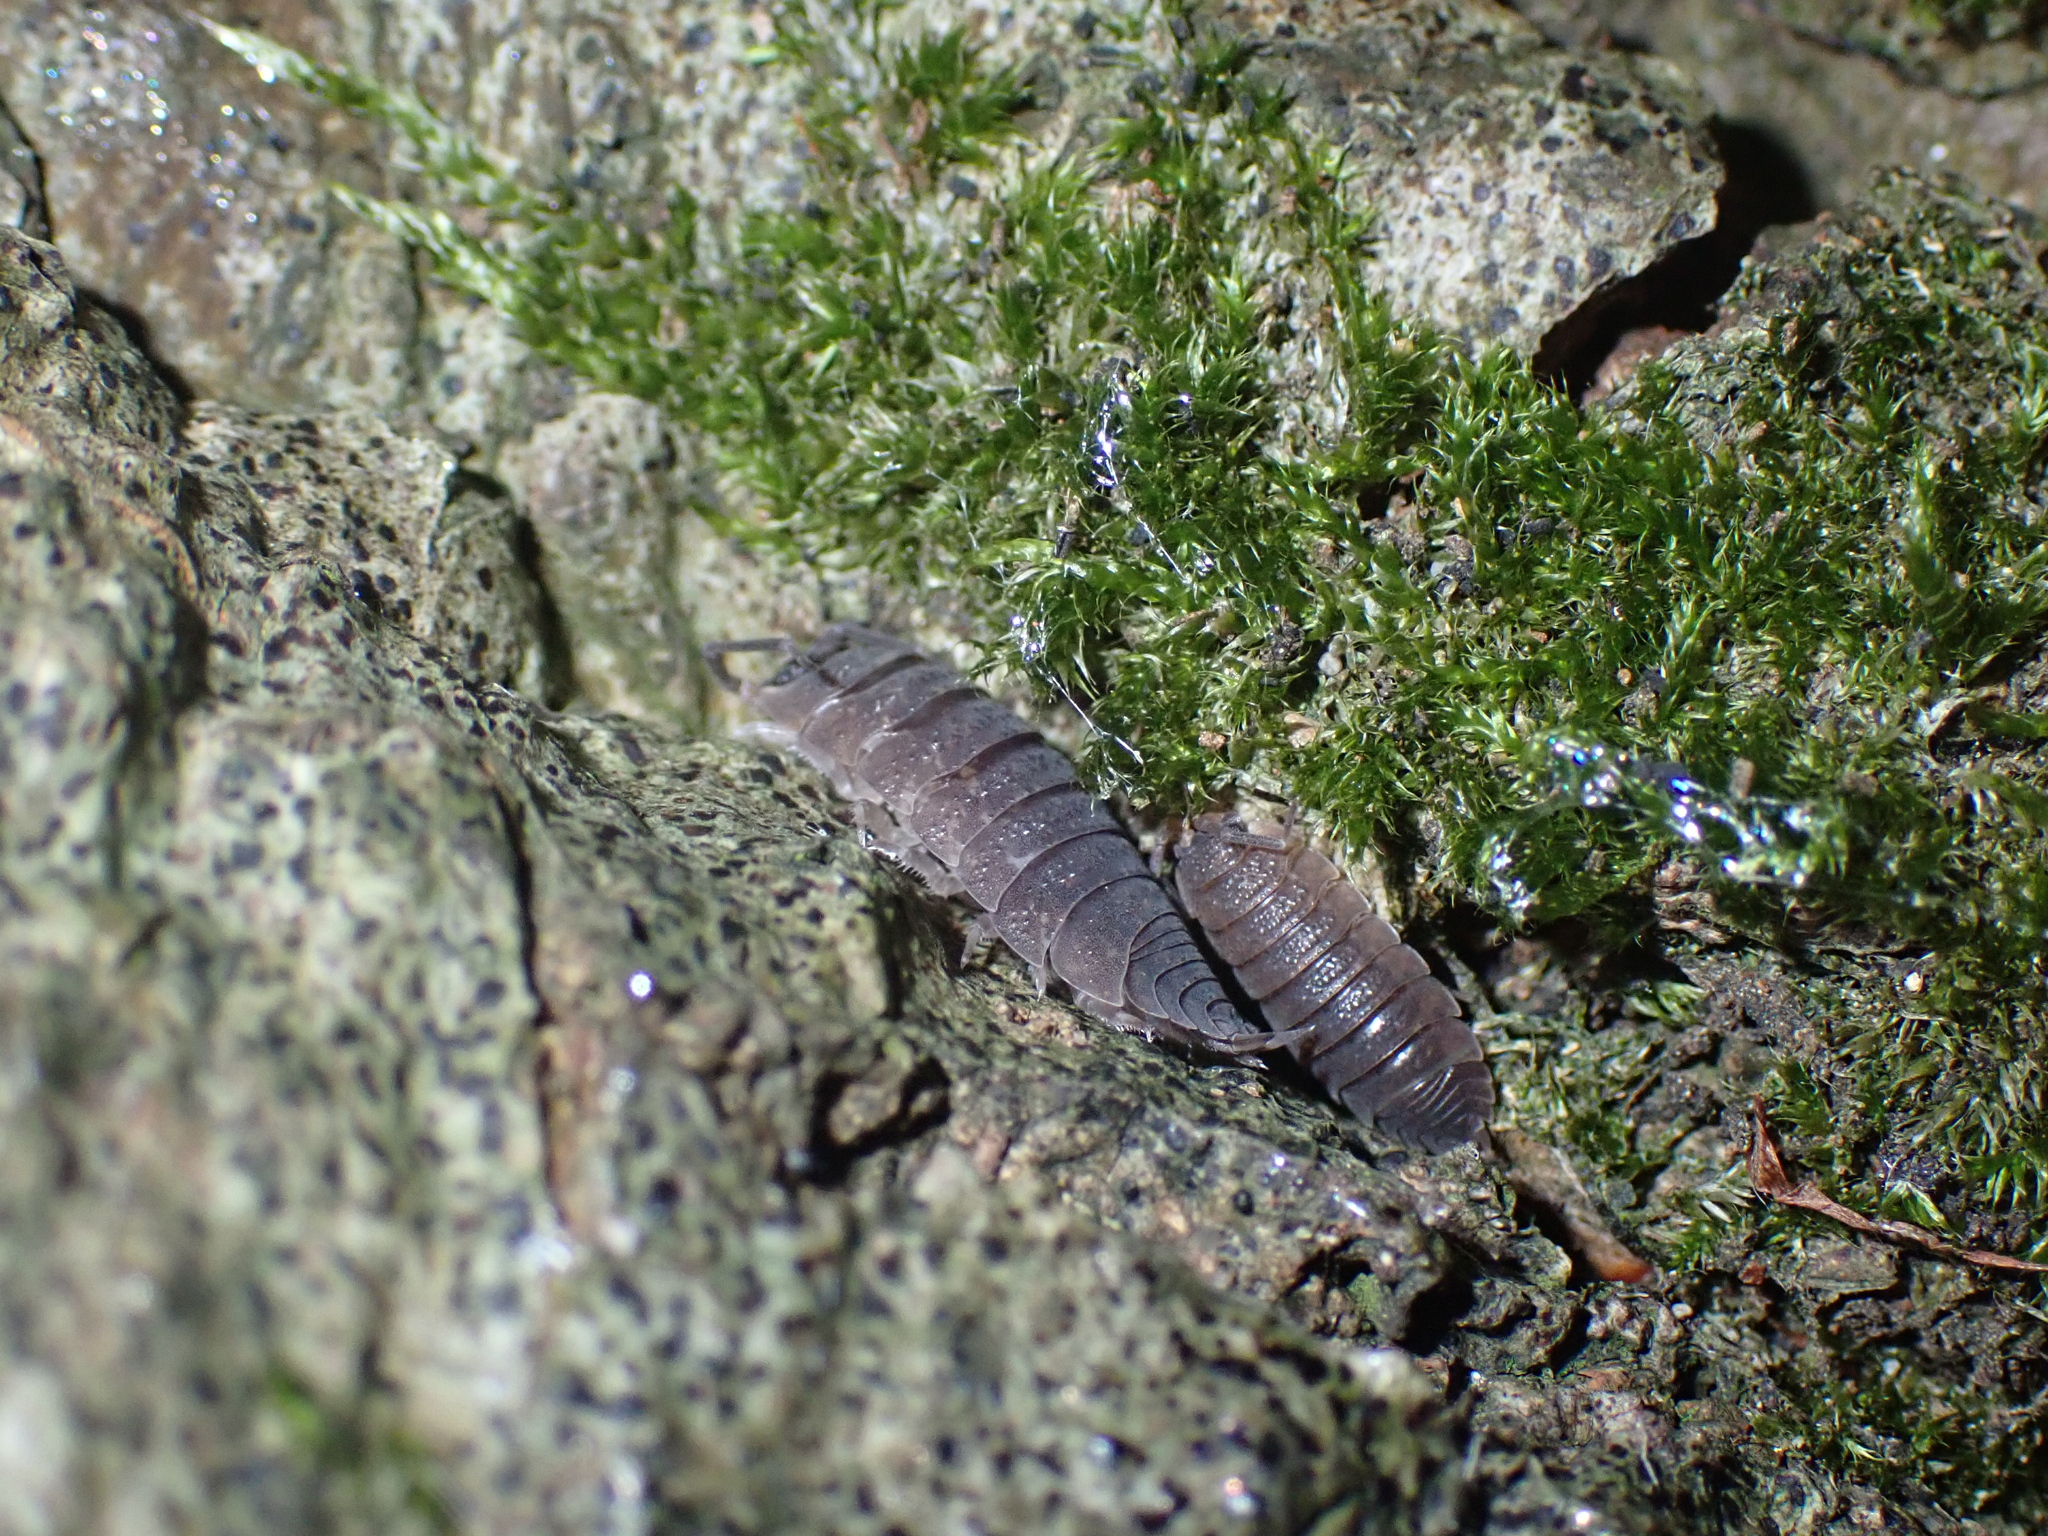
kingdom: Animalia
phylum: Arthropoda
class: Malacostraca
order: Isopoda
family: Porcellionidae
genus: Porcellio
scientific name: Porcellio scaber
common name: Common rough woodlouse
